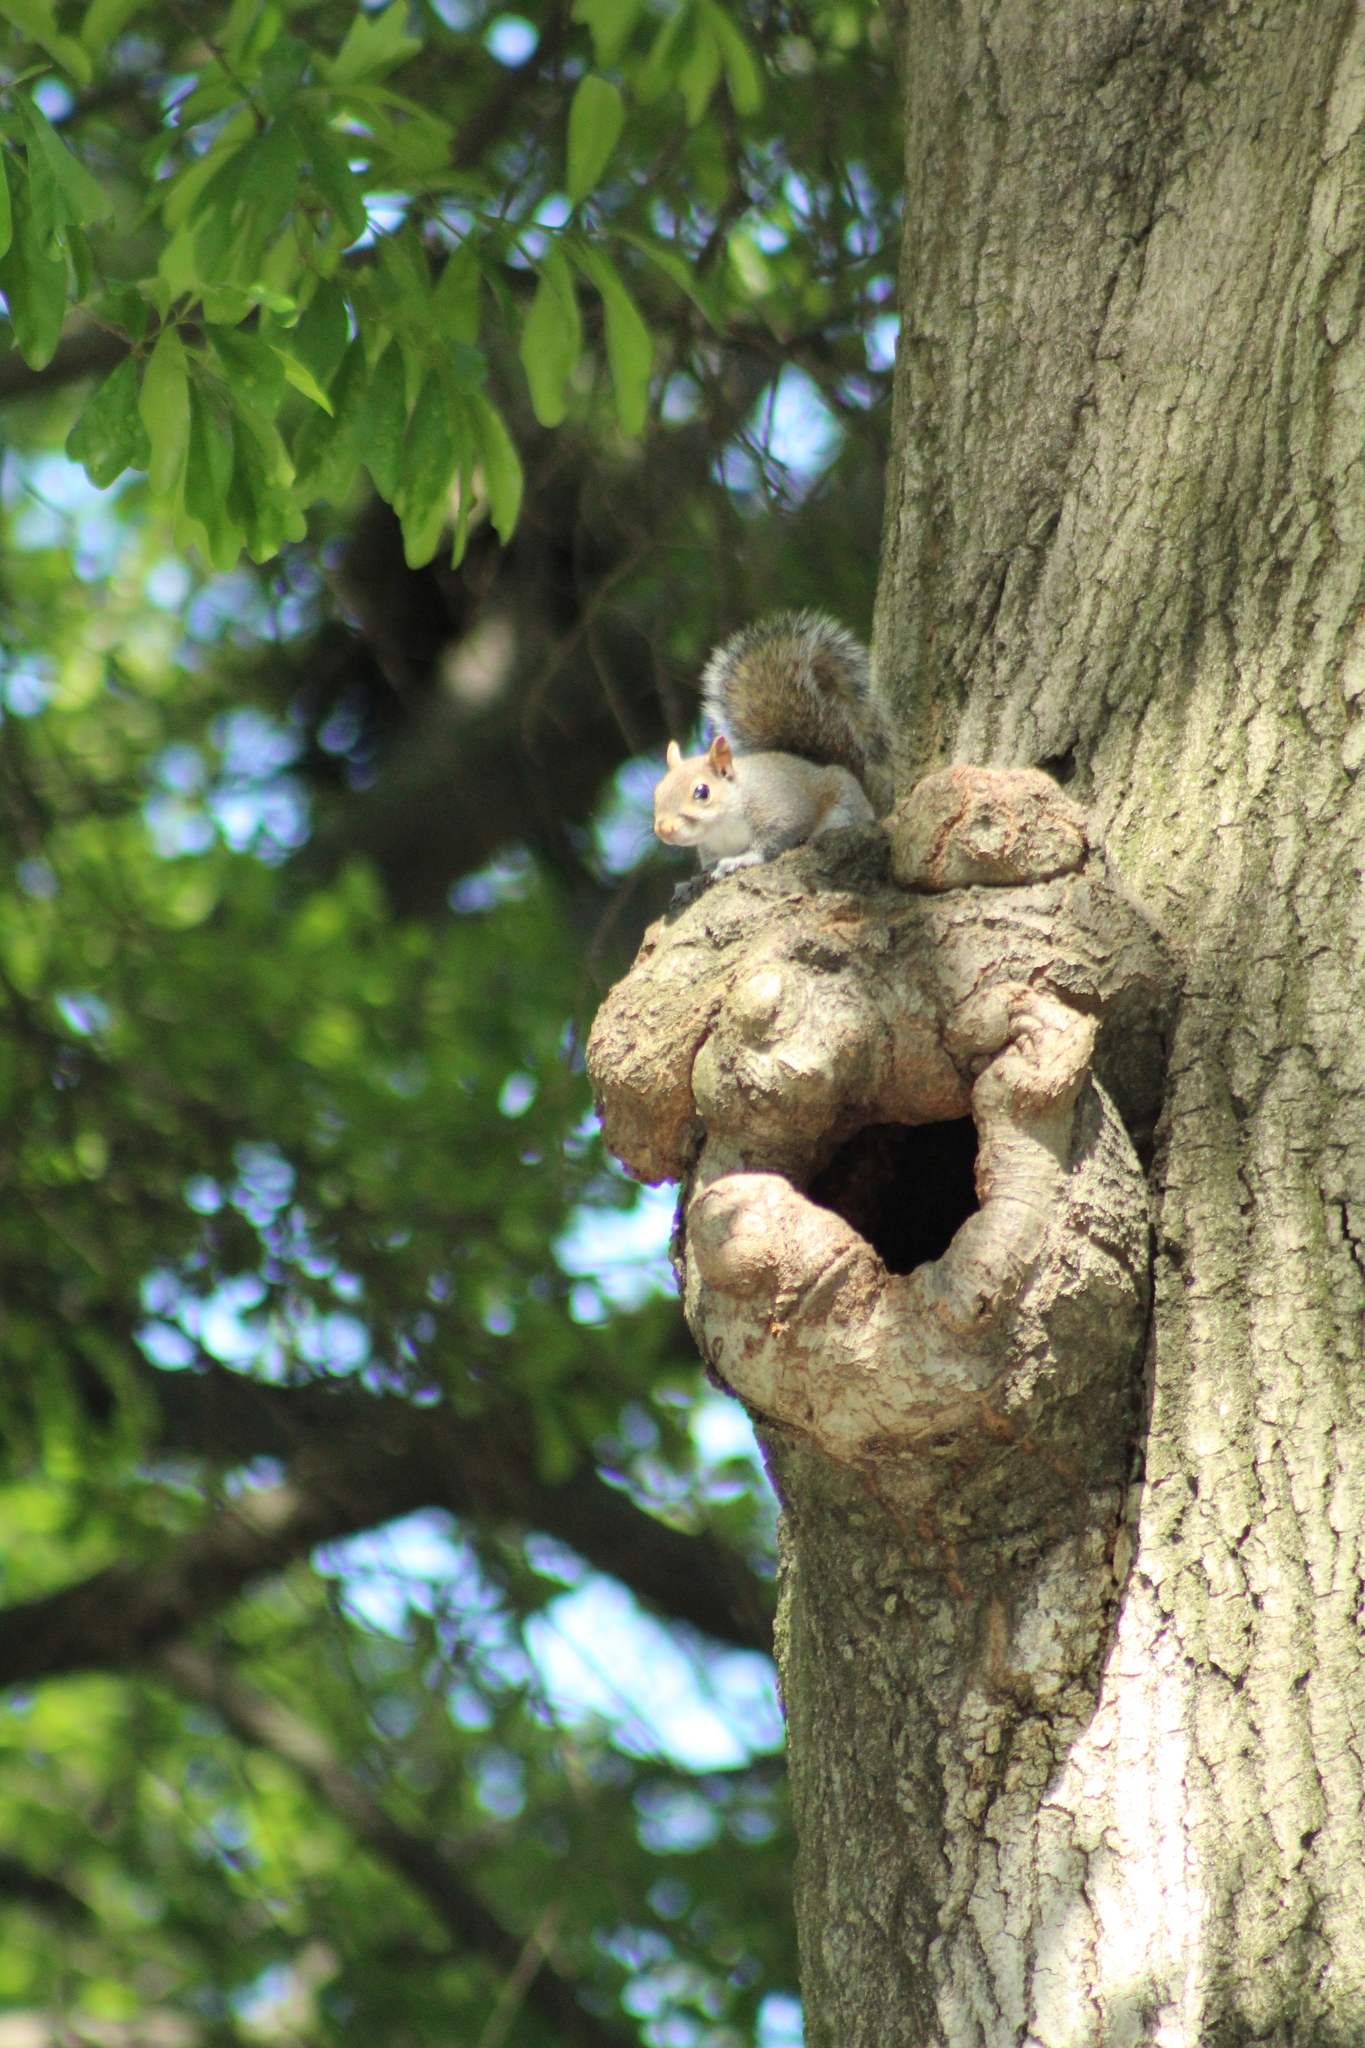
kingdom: Animalia
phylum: Chordata
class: Mammalia
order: Rodentia
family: Sciuridae
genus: Sciurus
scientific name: Sciurus carolinensis
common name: Eastern gray squirrel
